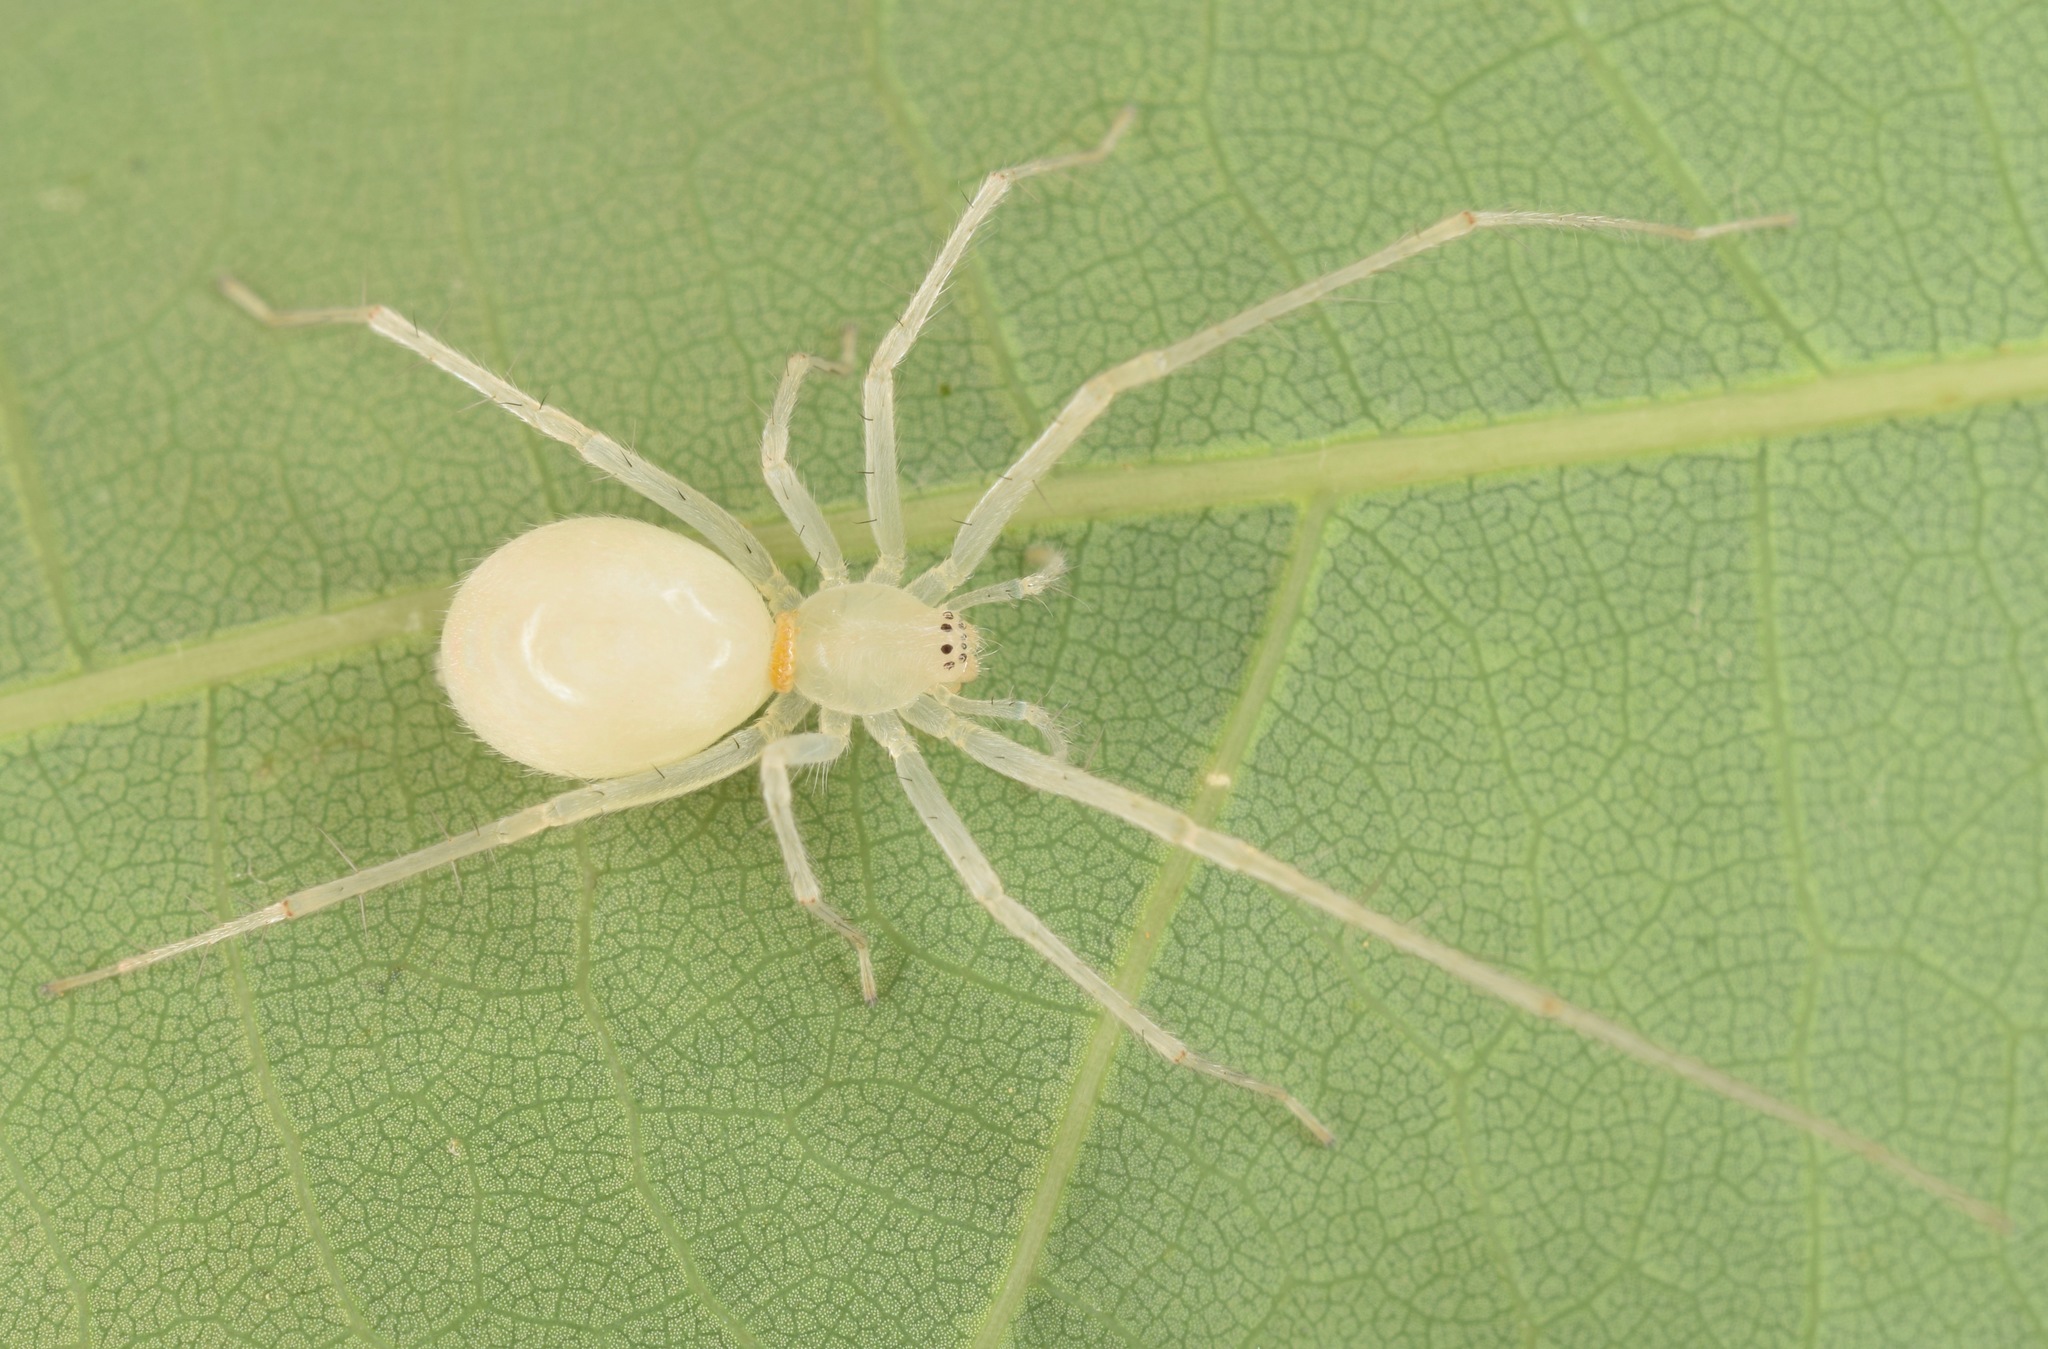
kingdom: Animalia
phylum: Arthropoda
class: Arachnida
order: Araneae
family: Anyphaenidae
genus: Wulfila
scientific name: Wulfila
